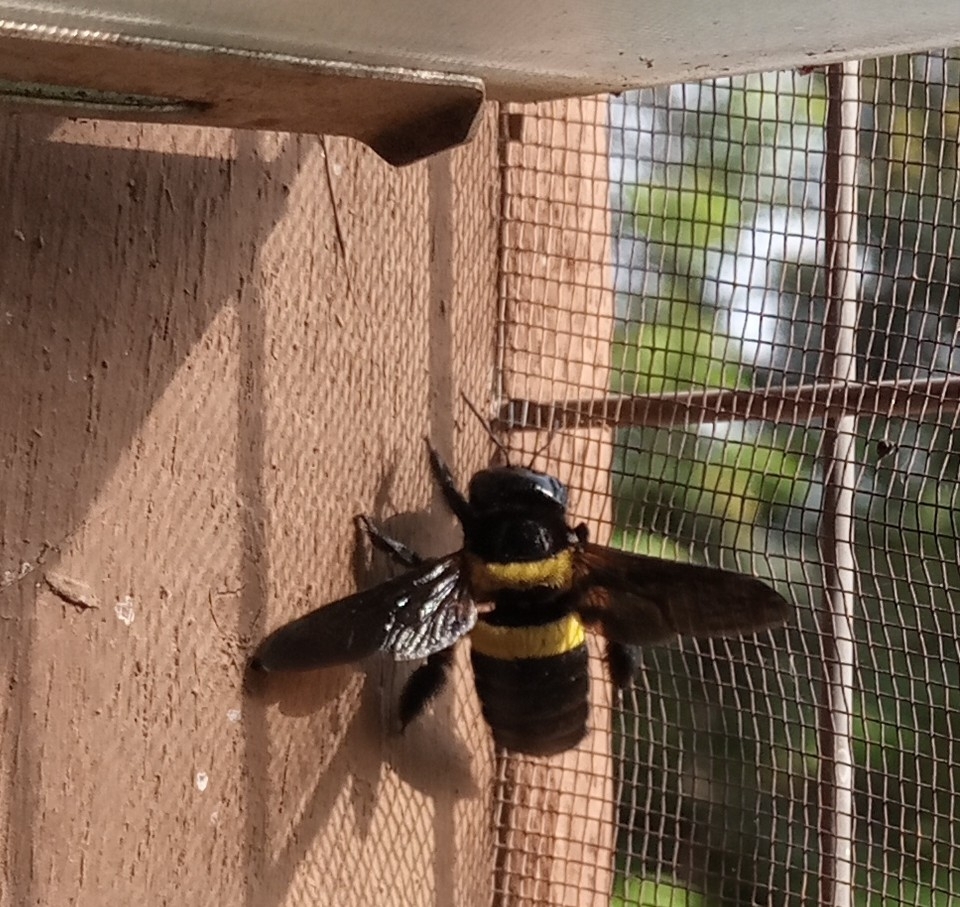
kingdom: Animalia
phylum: Arthropoda
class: Insecta
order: Hymenoptera
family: Apidae
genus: Xylocopa
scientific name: Xylocopa caffra
